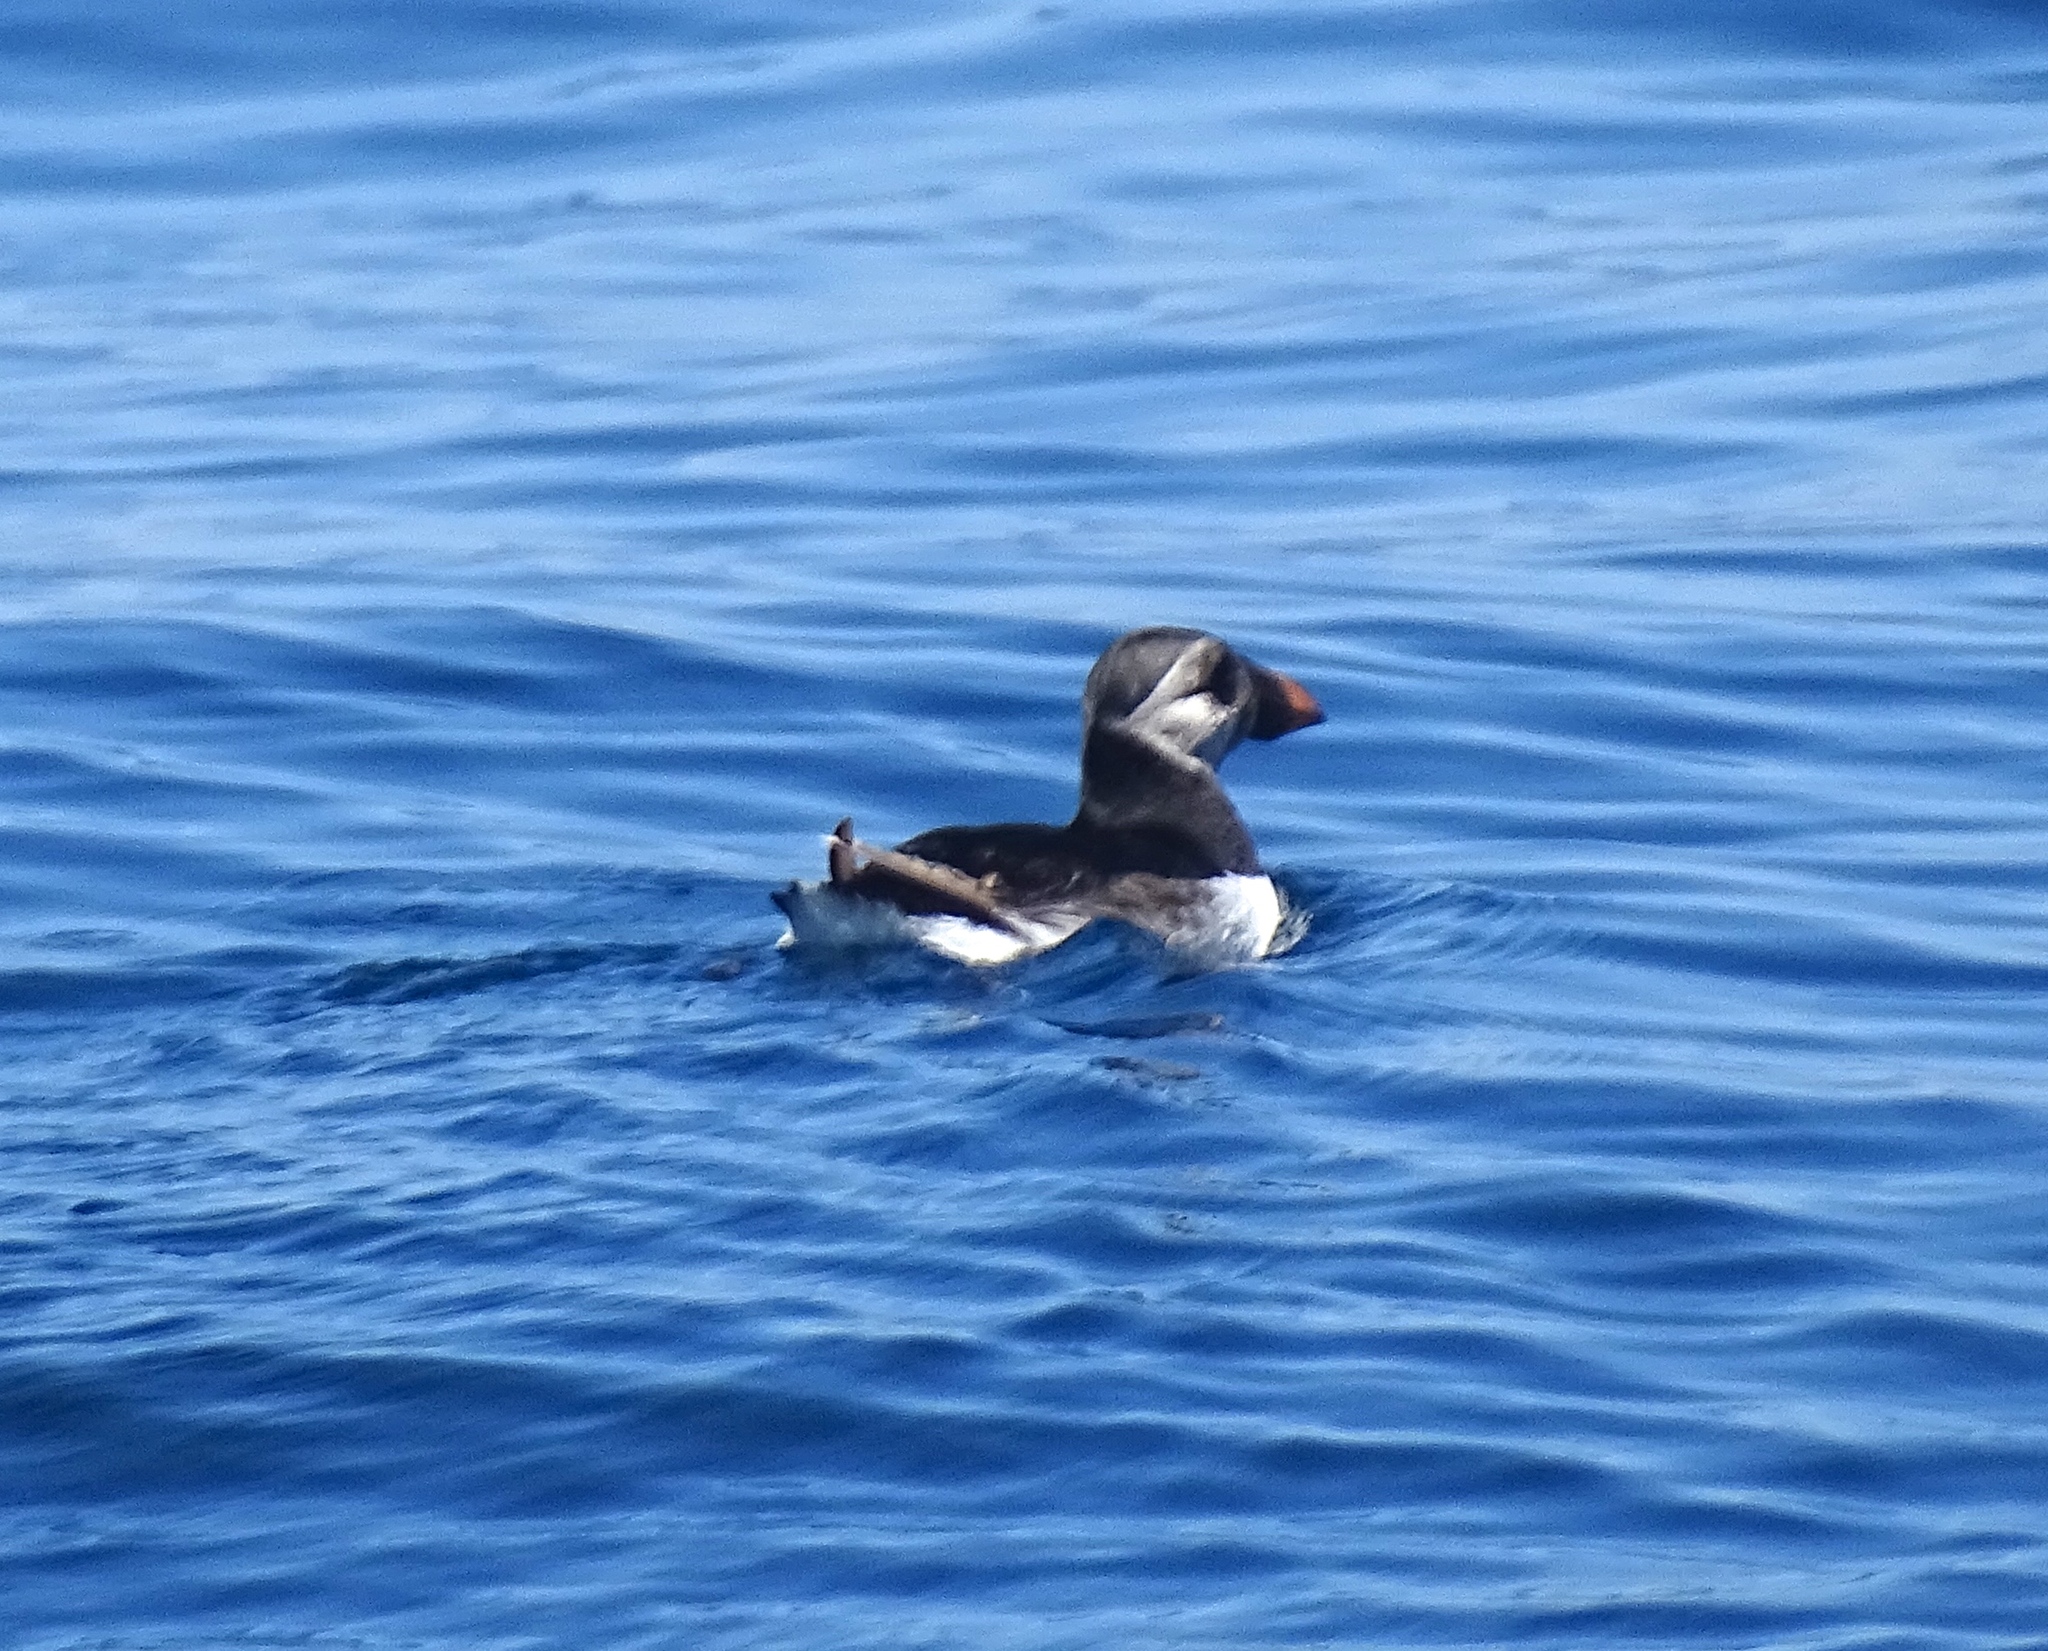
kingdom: Animalia
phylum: Chordata
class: Aves
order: Charadriiformes
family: Alcidae
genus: Fratercula
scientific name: Fratercula arctica
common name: Atlantic puffin
